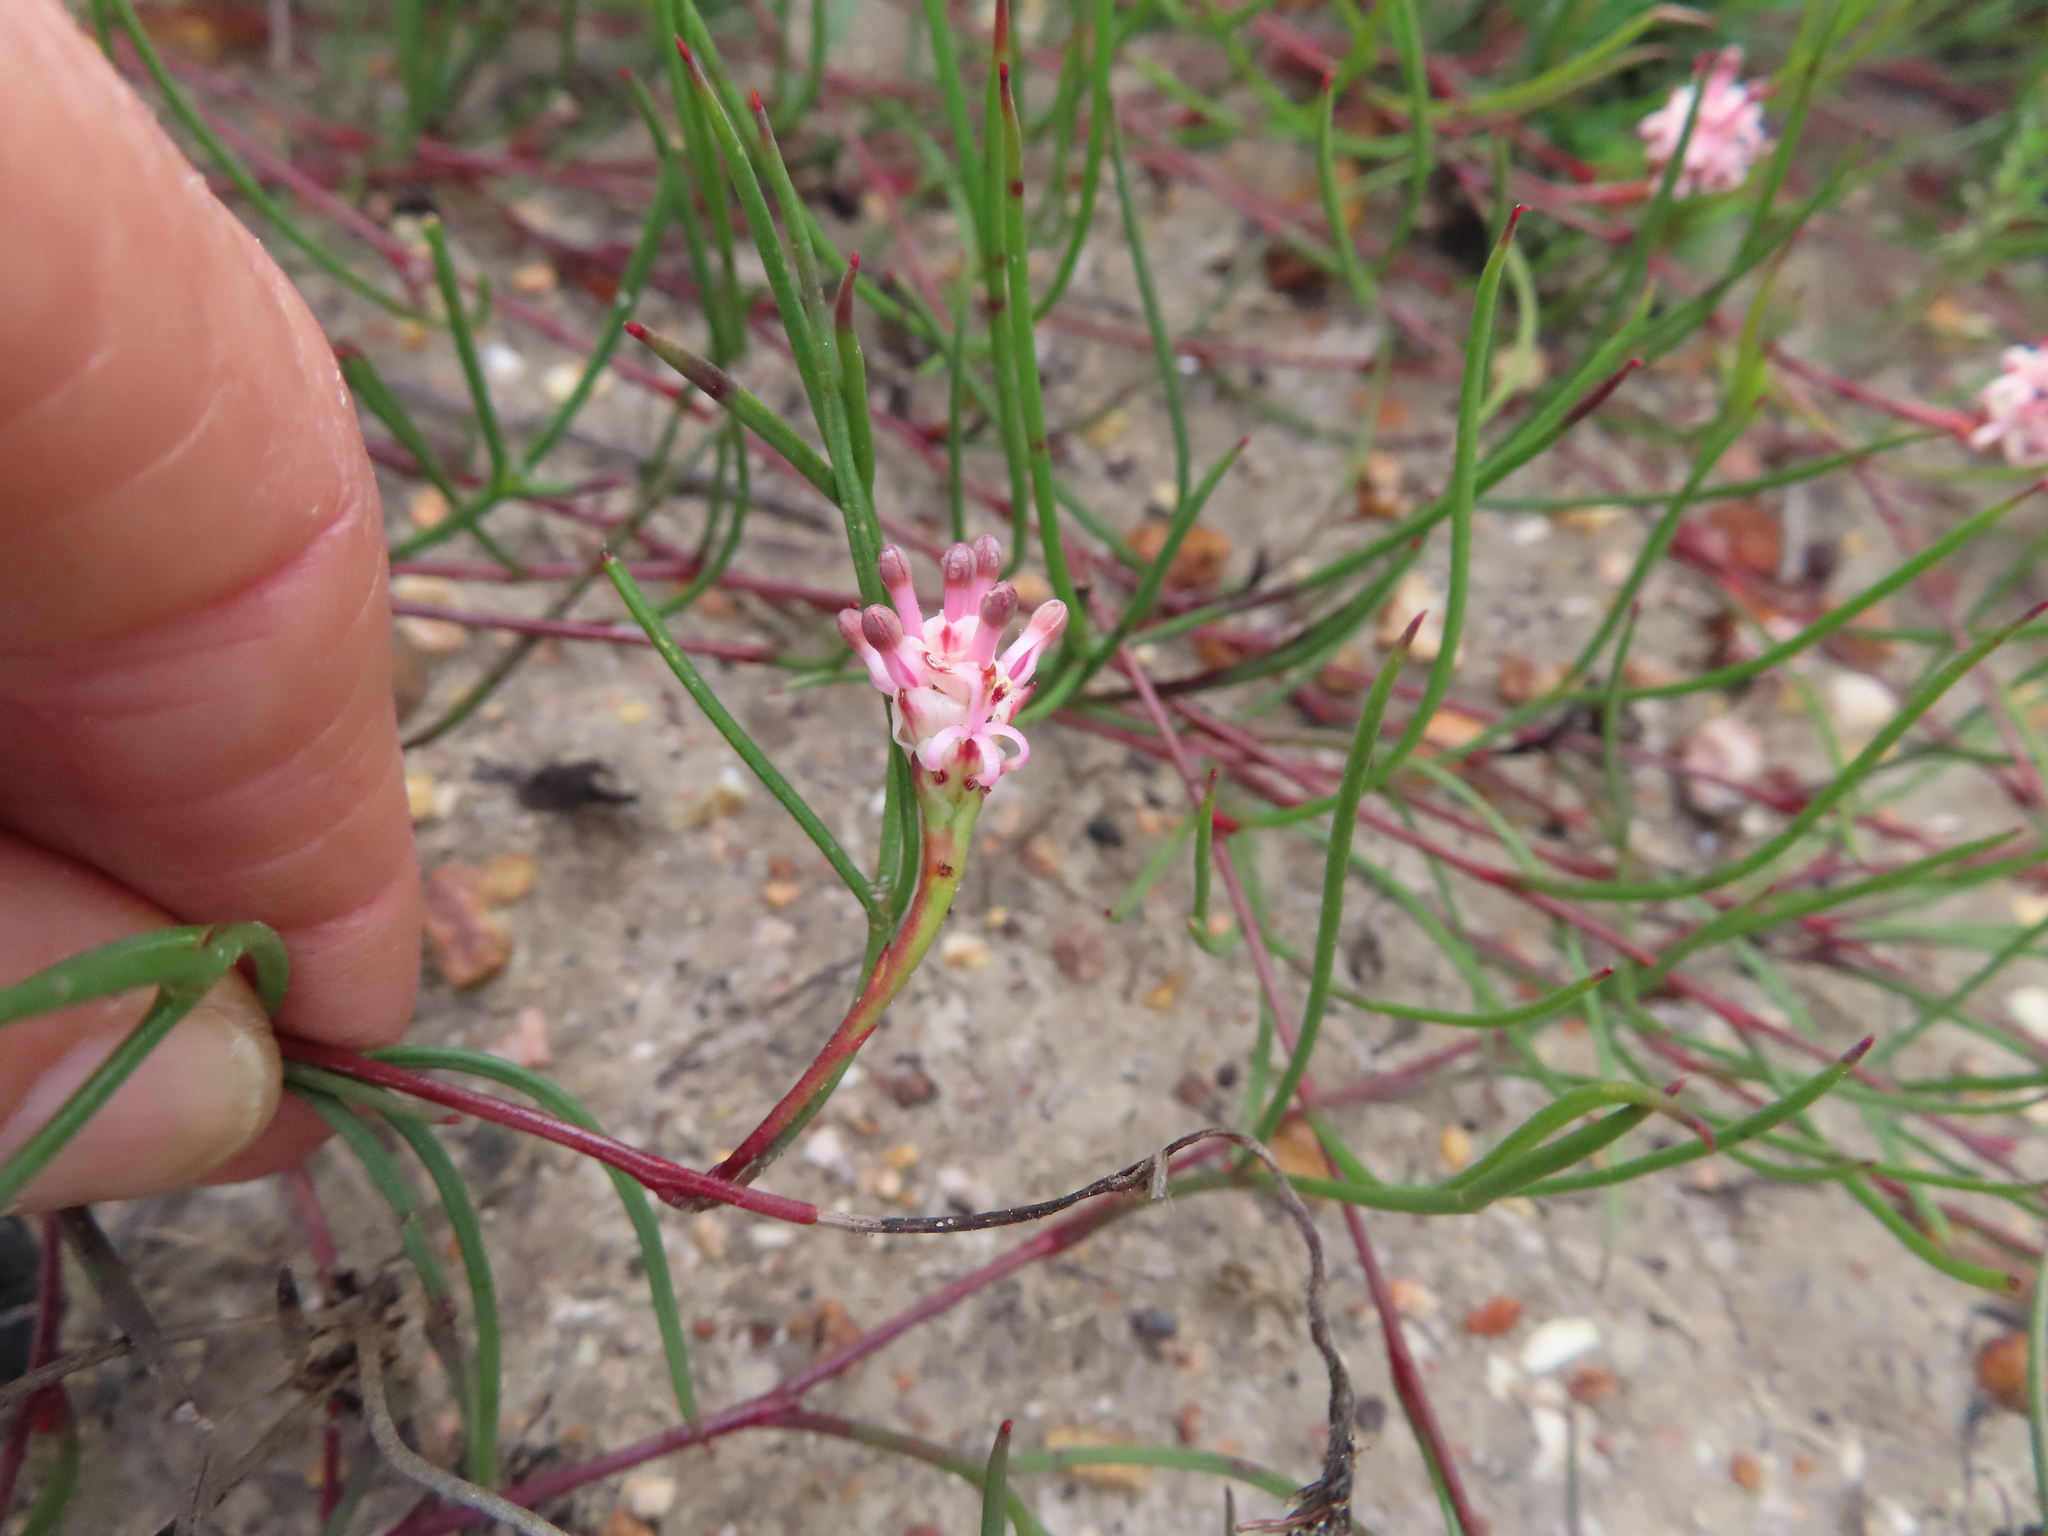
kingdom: Plantae
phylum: Tracheophyta
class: Magnoliopsida
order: Proteales
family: Proteaceae
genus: Serruria
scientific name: Serruria flagellifolia
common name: Houwhoek spiderhead
